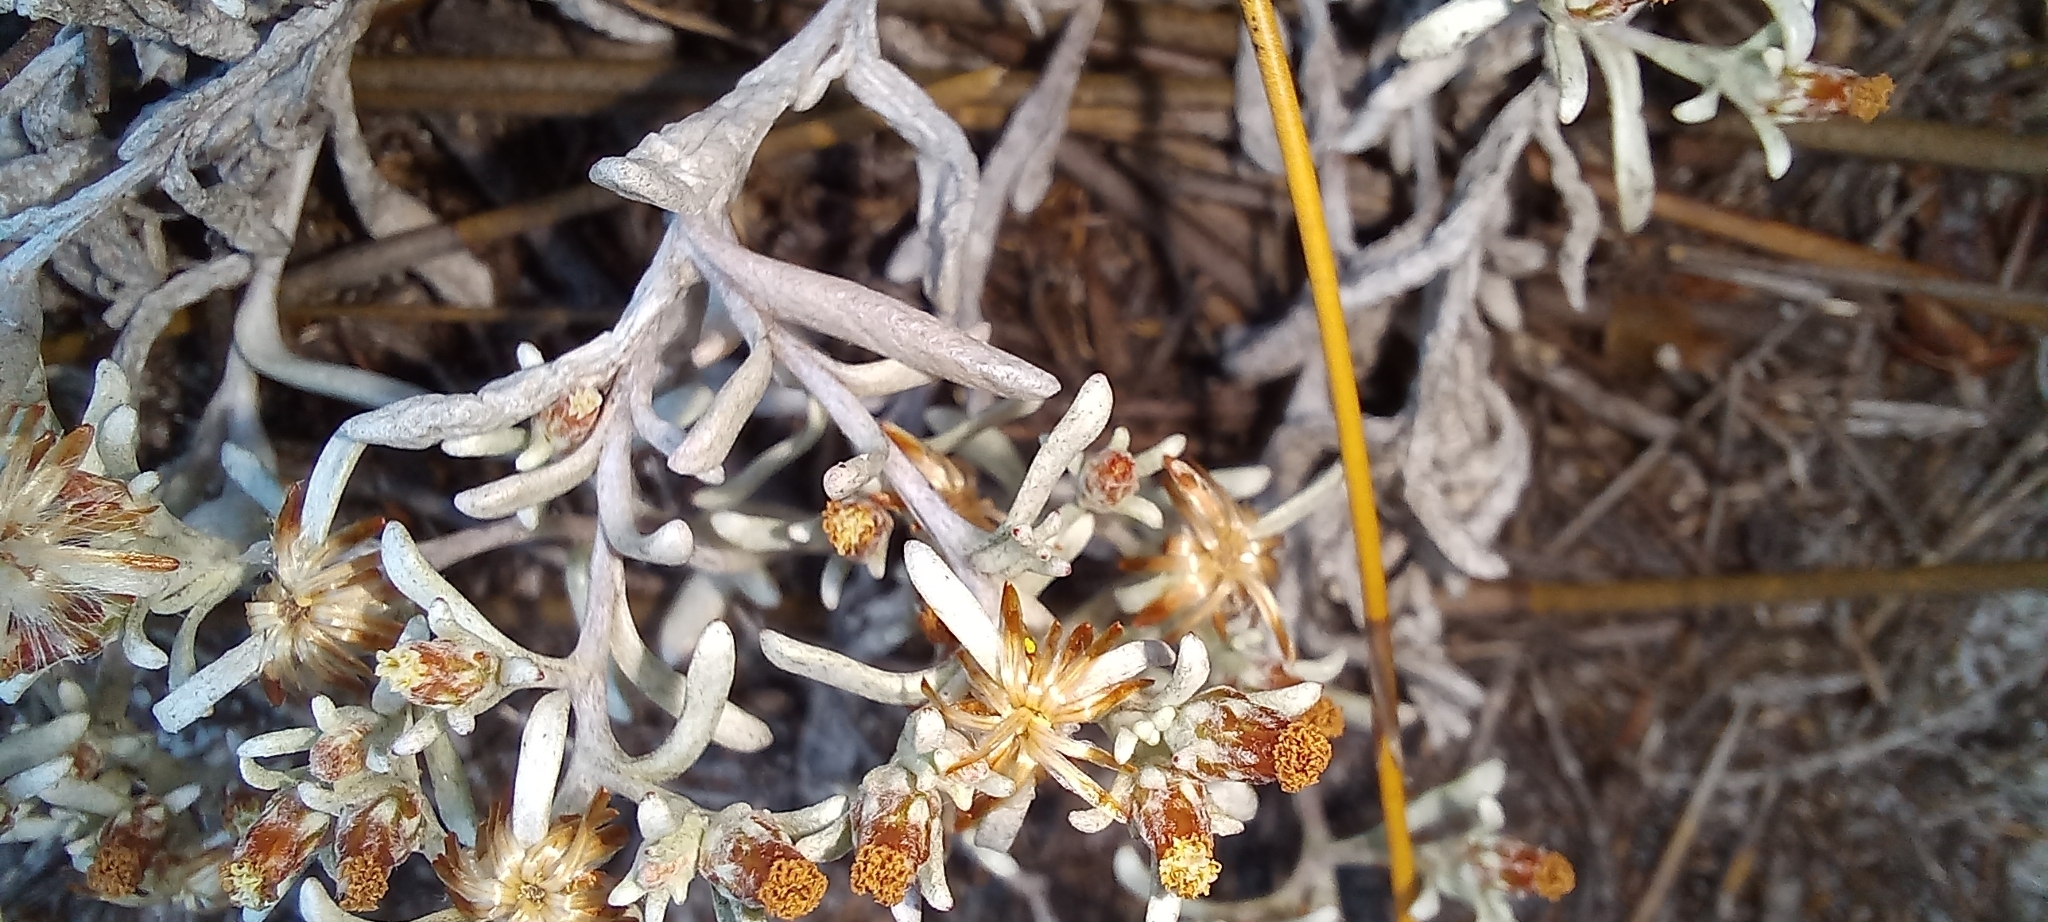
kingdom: Plantae
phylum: Tracheophyta
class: Magnoliopsida
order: Asterales
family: Asteraceae
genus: Helichrysum
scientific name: Helichrysum litorale
